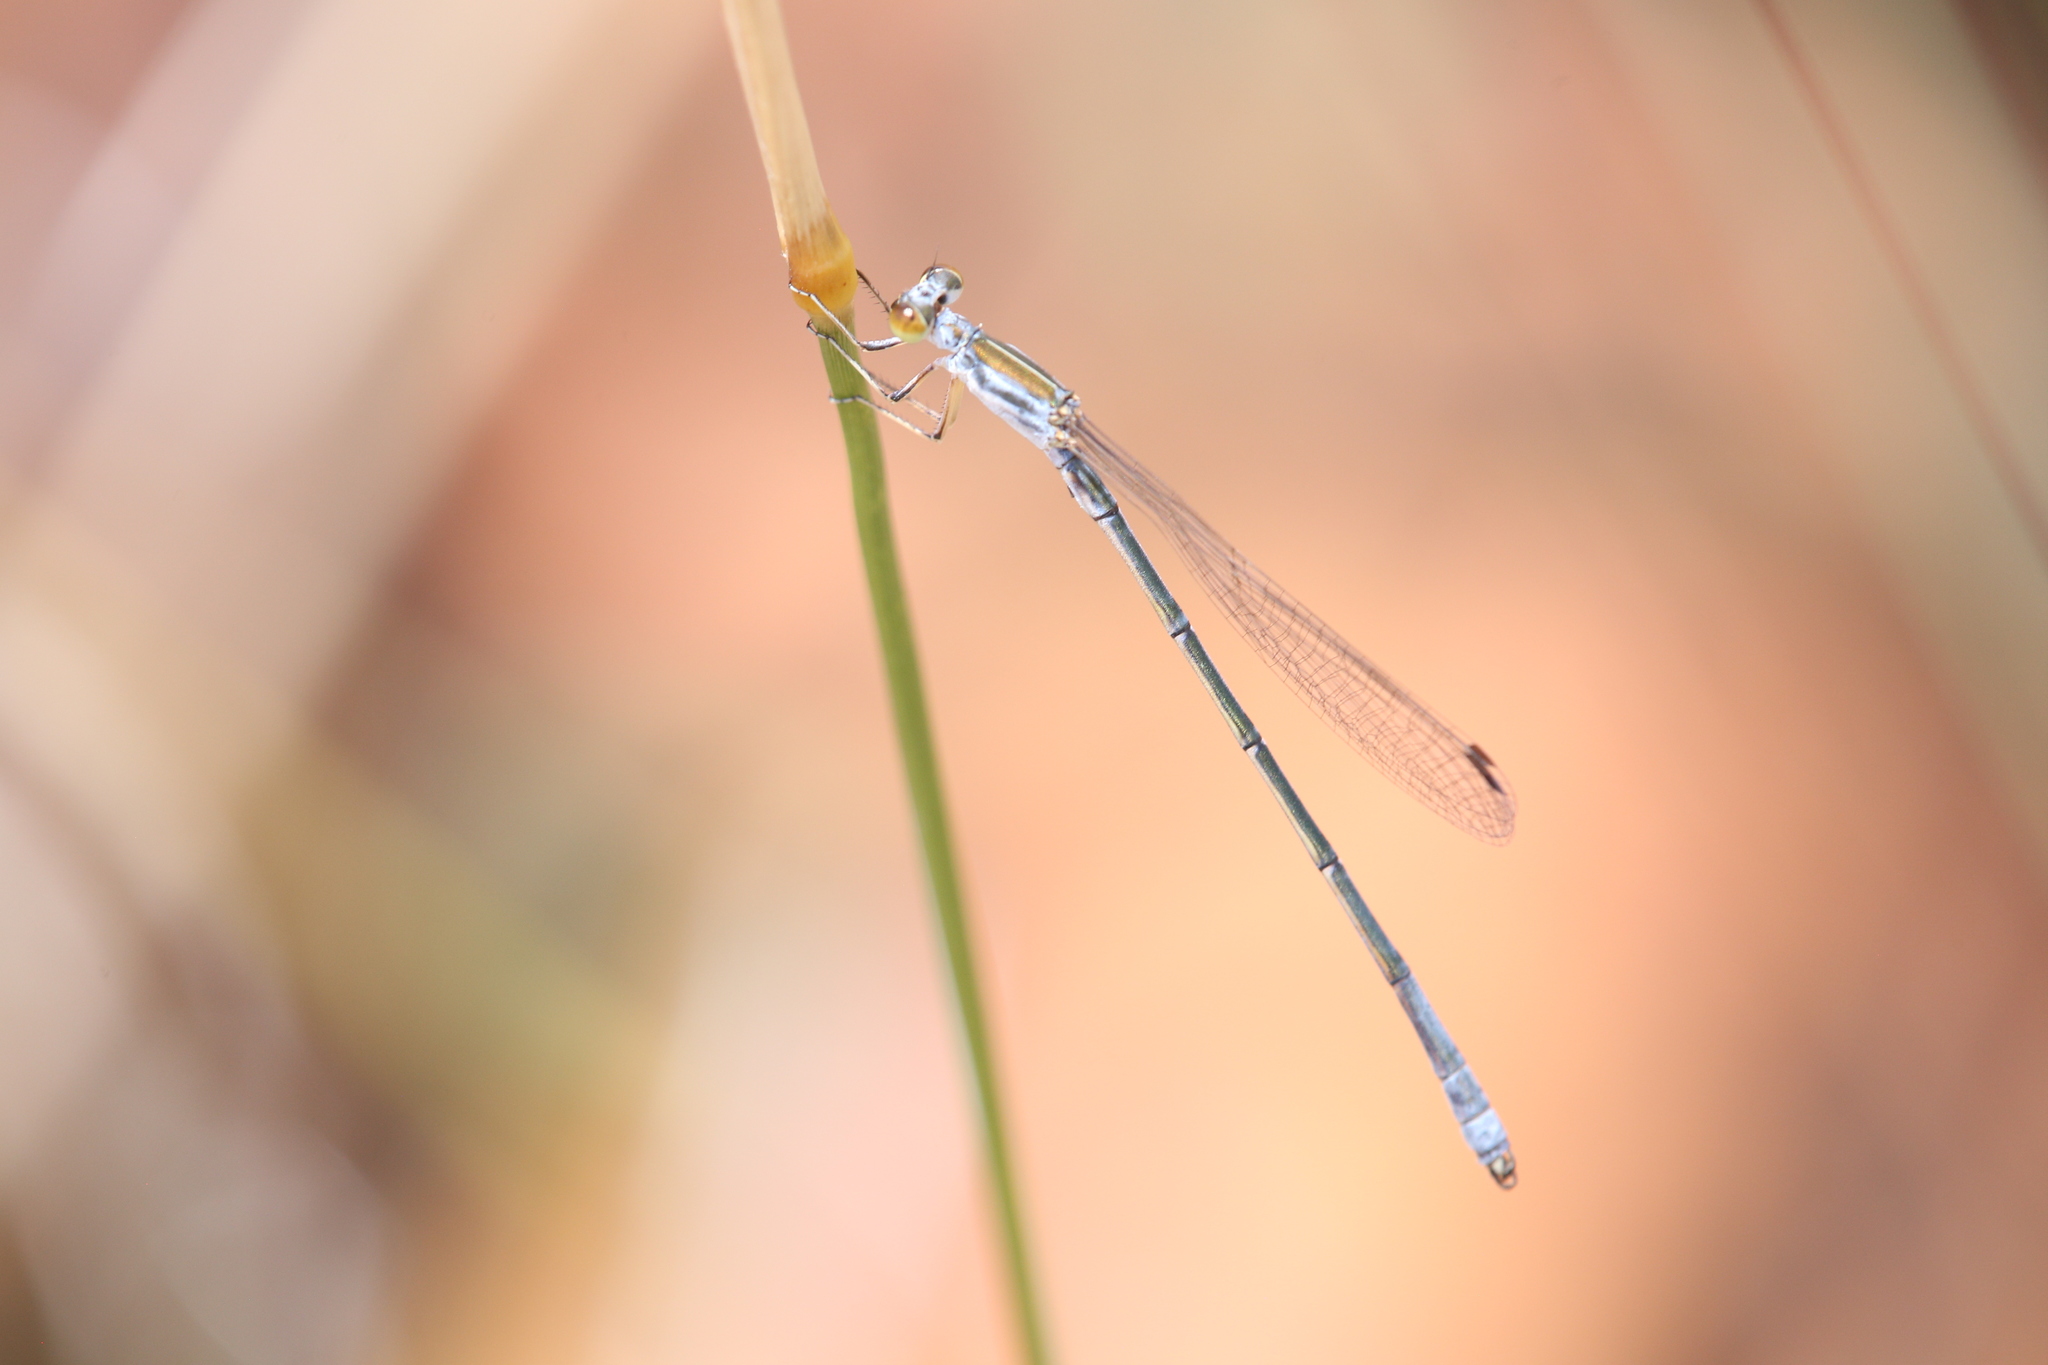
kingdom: Animalia
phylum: Arthropoda
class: Insecta
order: Odonata
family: Isostictidae
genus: Austrosticta
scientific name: Austrosticta soror
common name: Kimberley pondsitter
